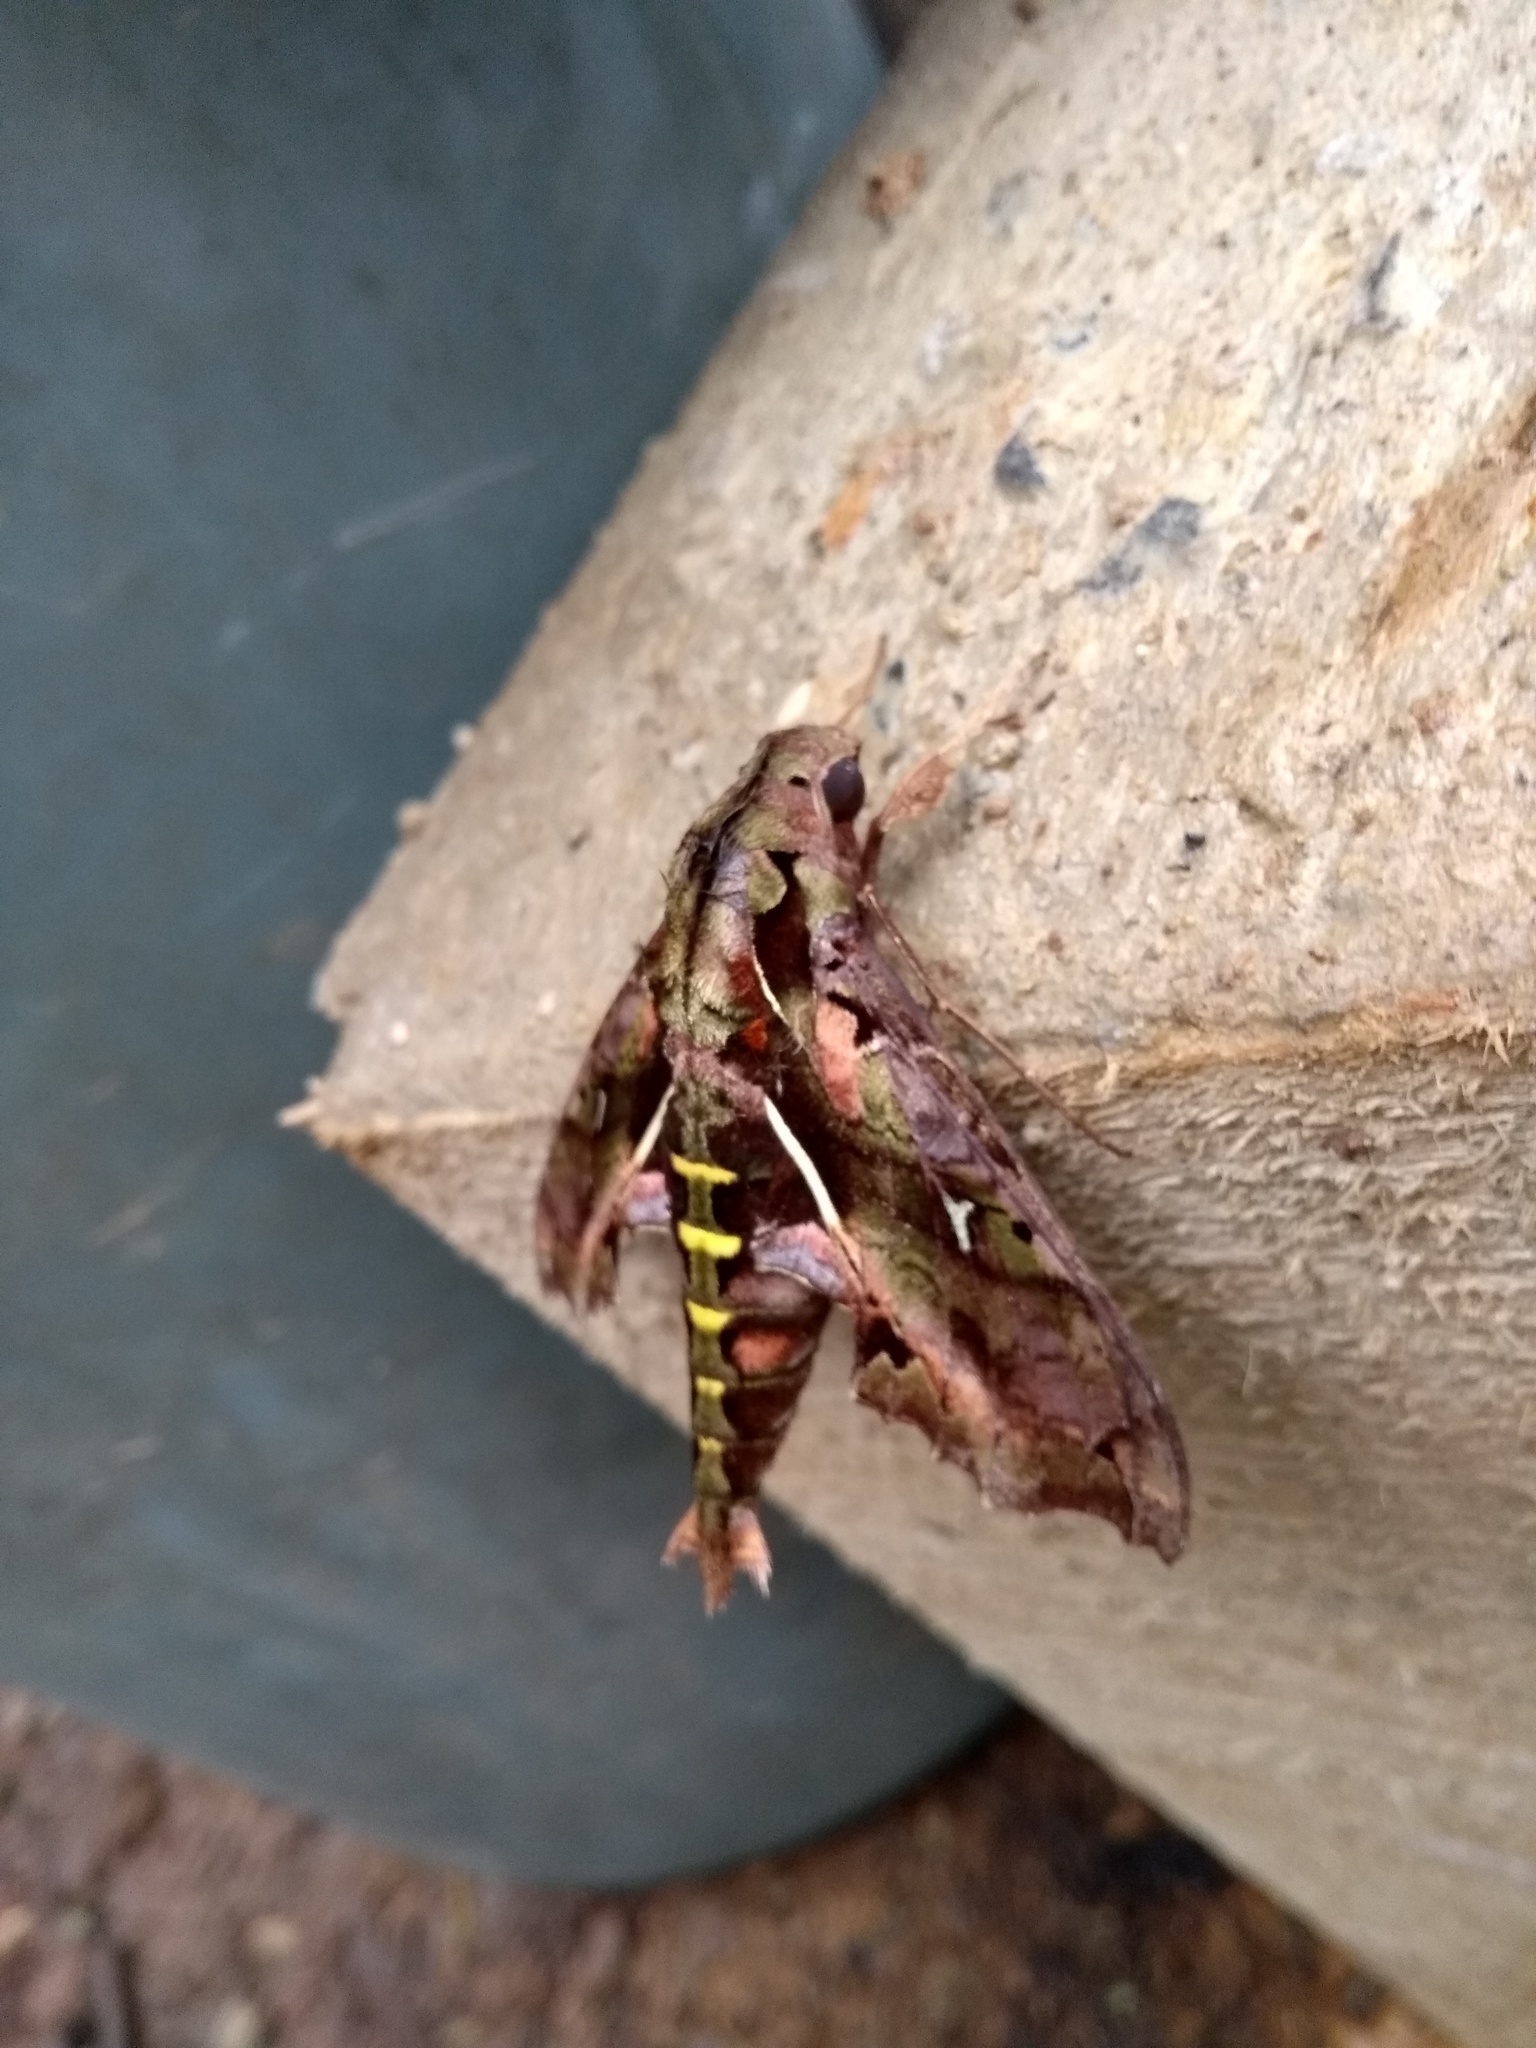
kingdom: Animalia
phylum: Arthropoda
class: Insecta
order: Lepidoptera
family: Sphingidae
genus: Hemeroplanes
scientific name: Hemeroplanes ornatus
